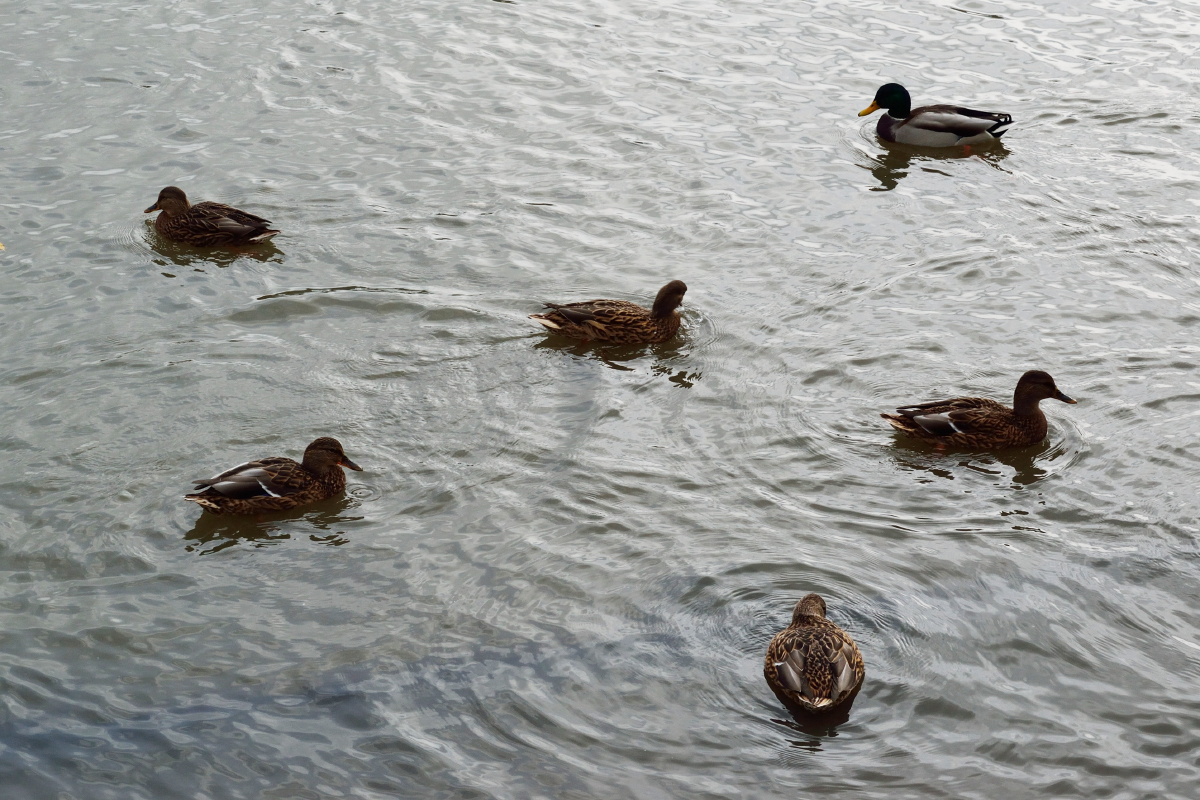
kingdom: Animalia
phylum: Chordata
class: Aves
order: Anseriformes
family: Anatidae
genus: Anas
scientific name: Anas platyrhynchos
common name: Mallard
